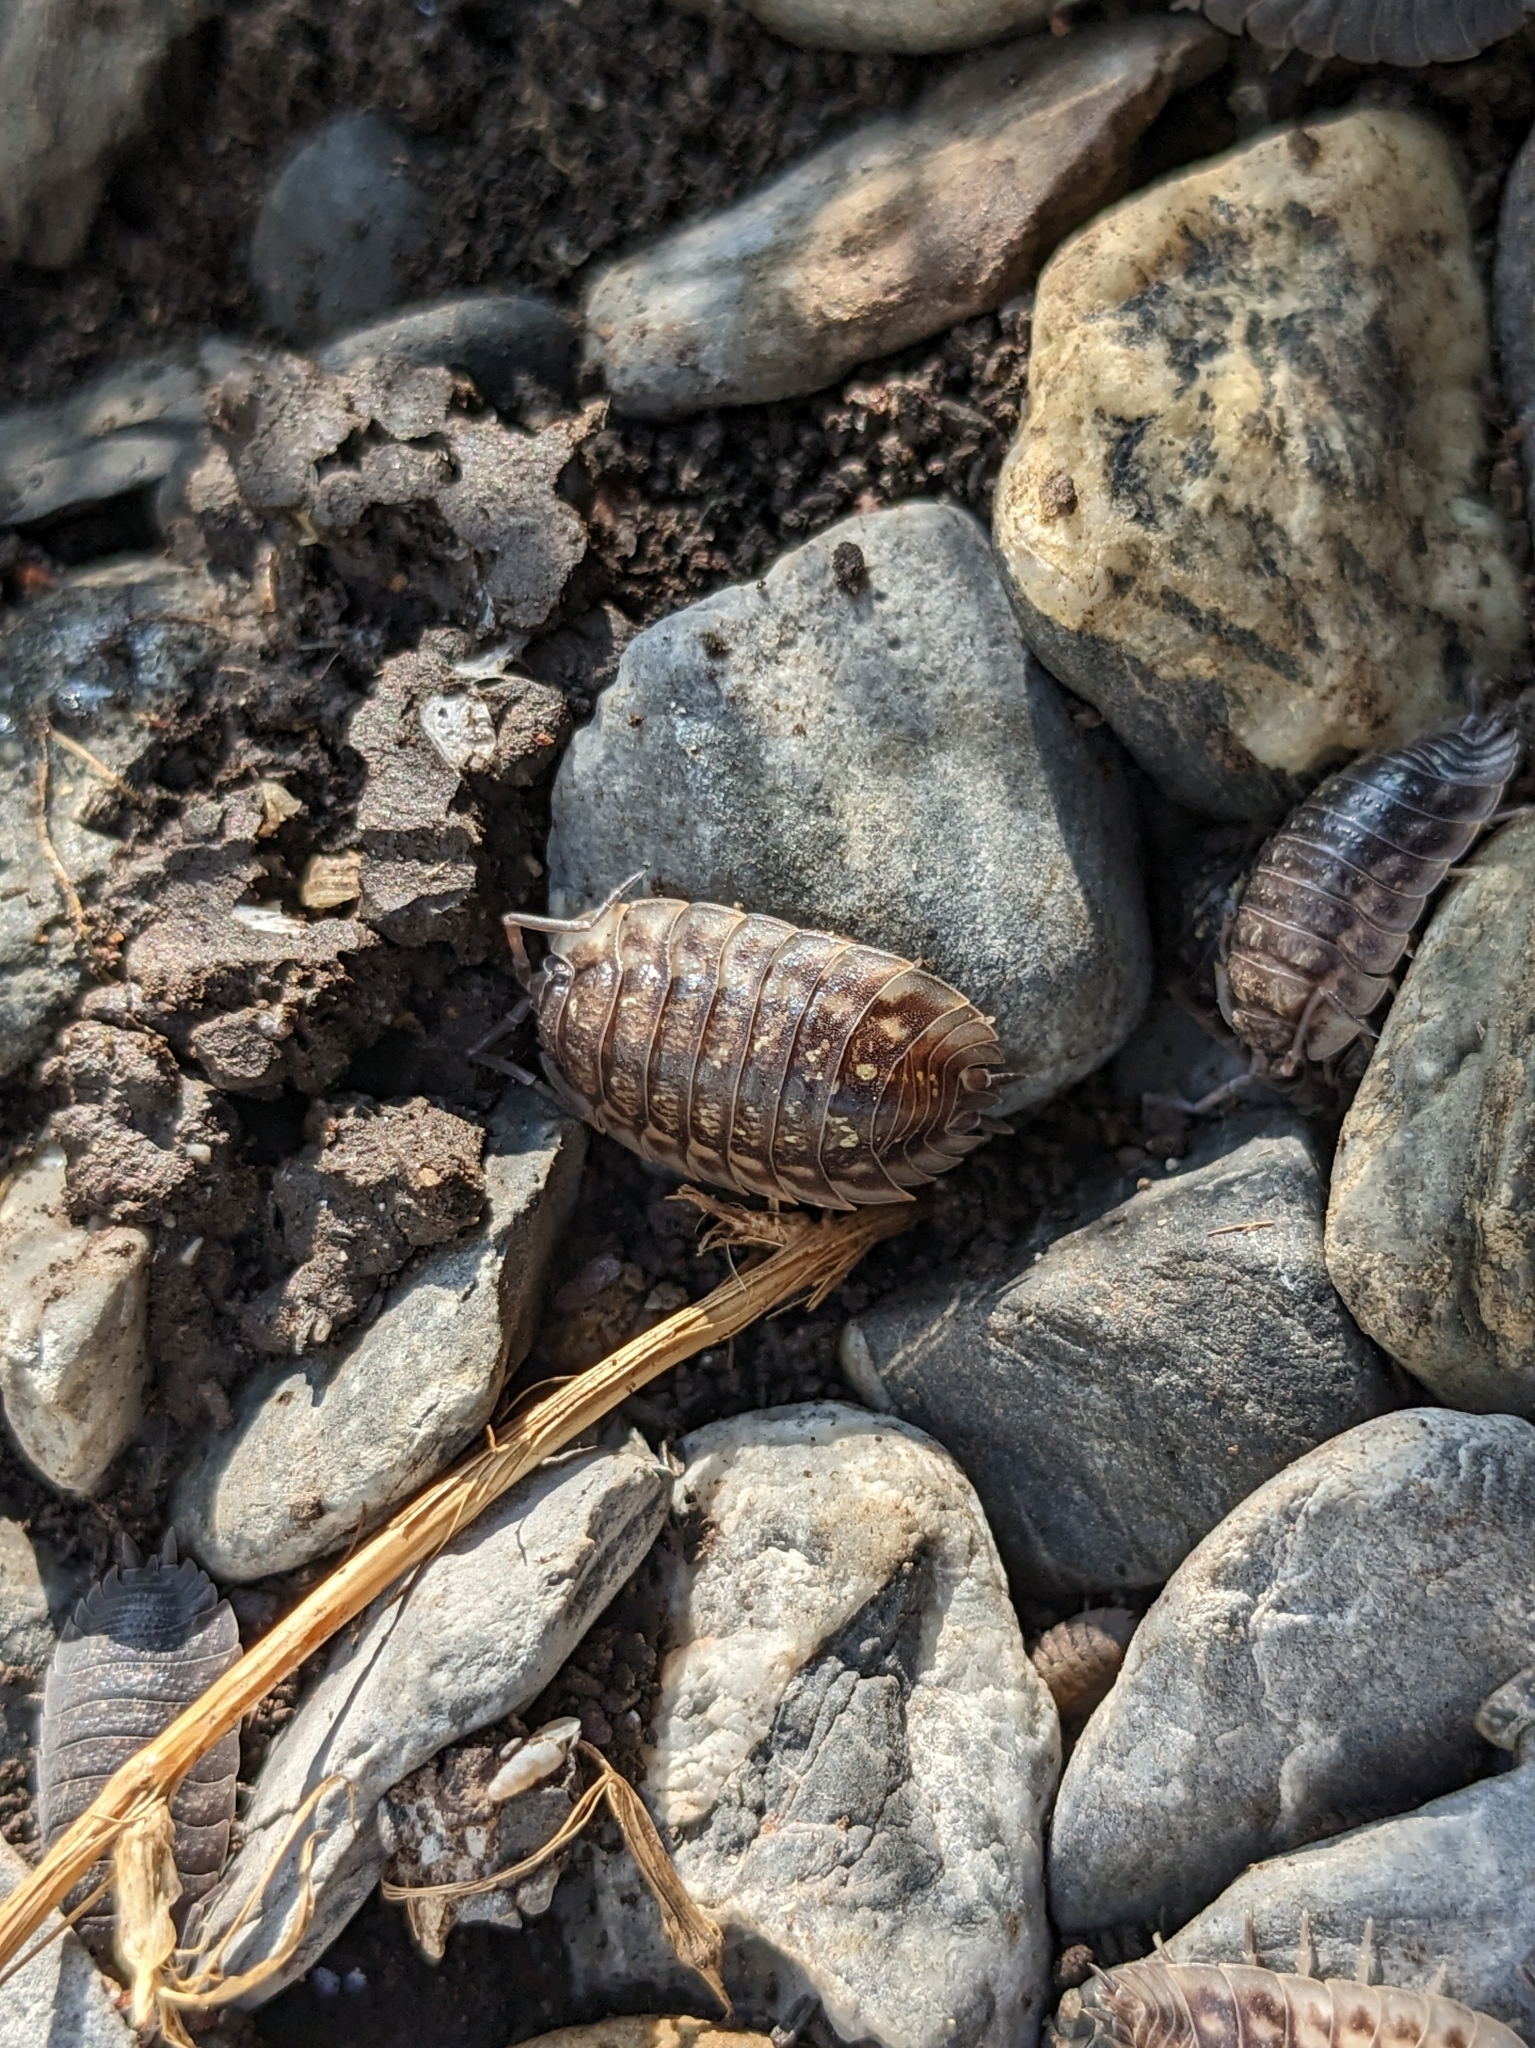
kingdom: Animalia
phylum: Arthropoda
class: Malacostraca
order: Isopoda
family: Oniscidae
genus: Oniscus
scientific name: Oniscus asellus
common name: Common shiny woodlouse
